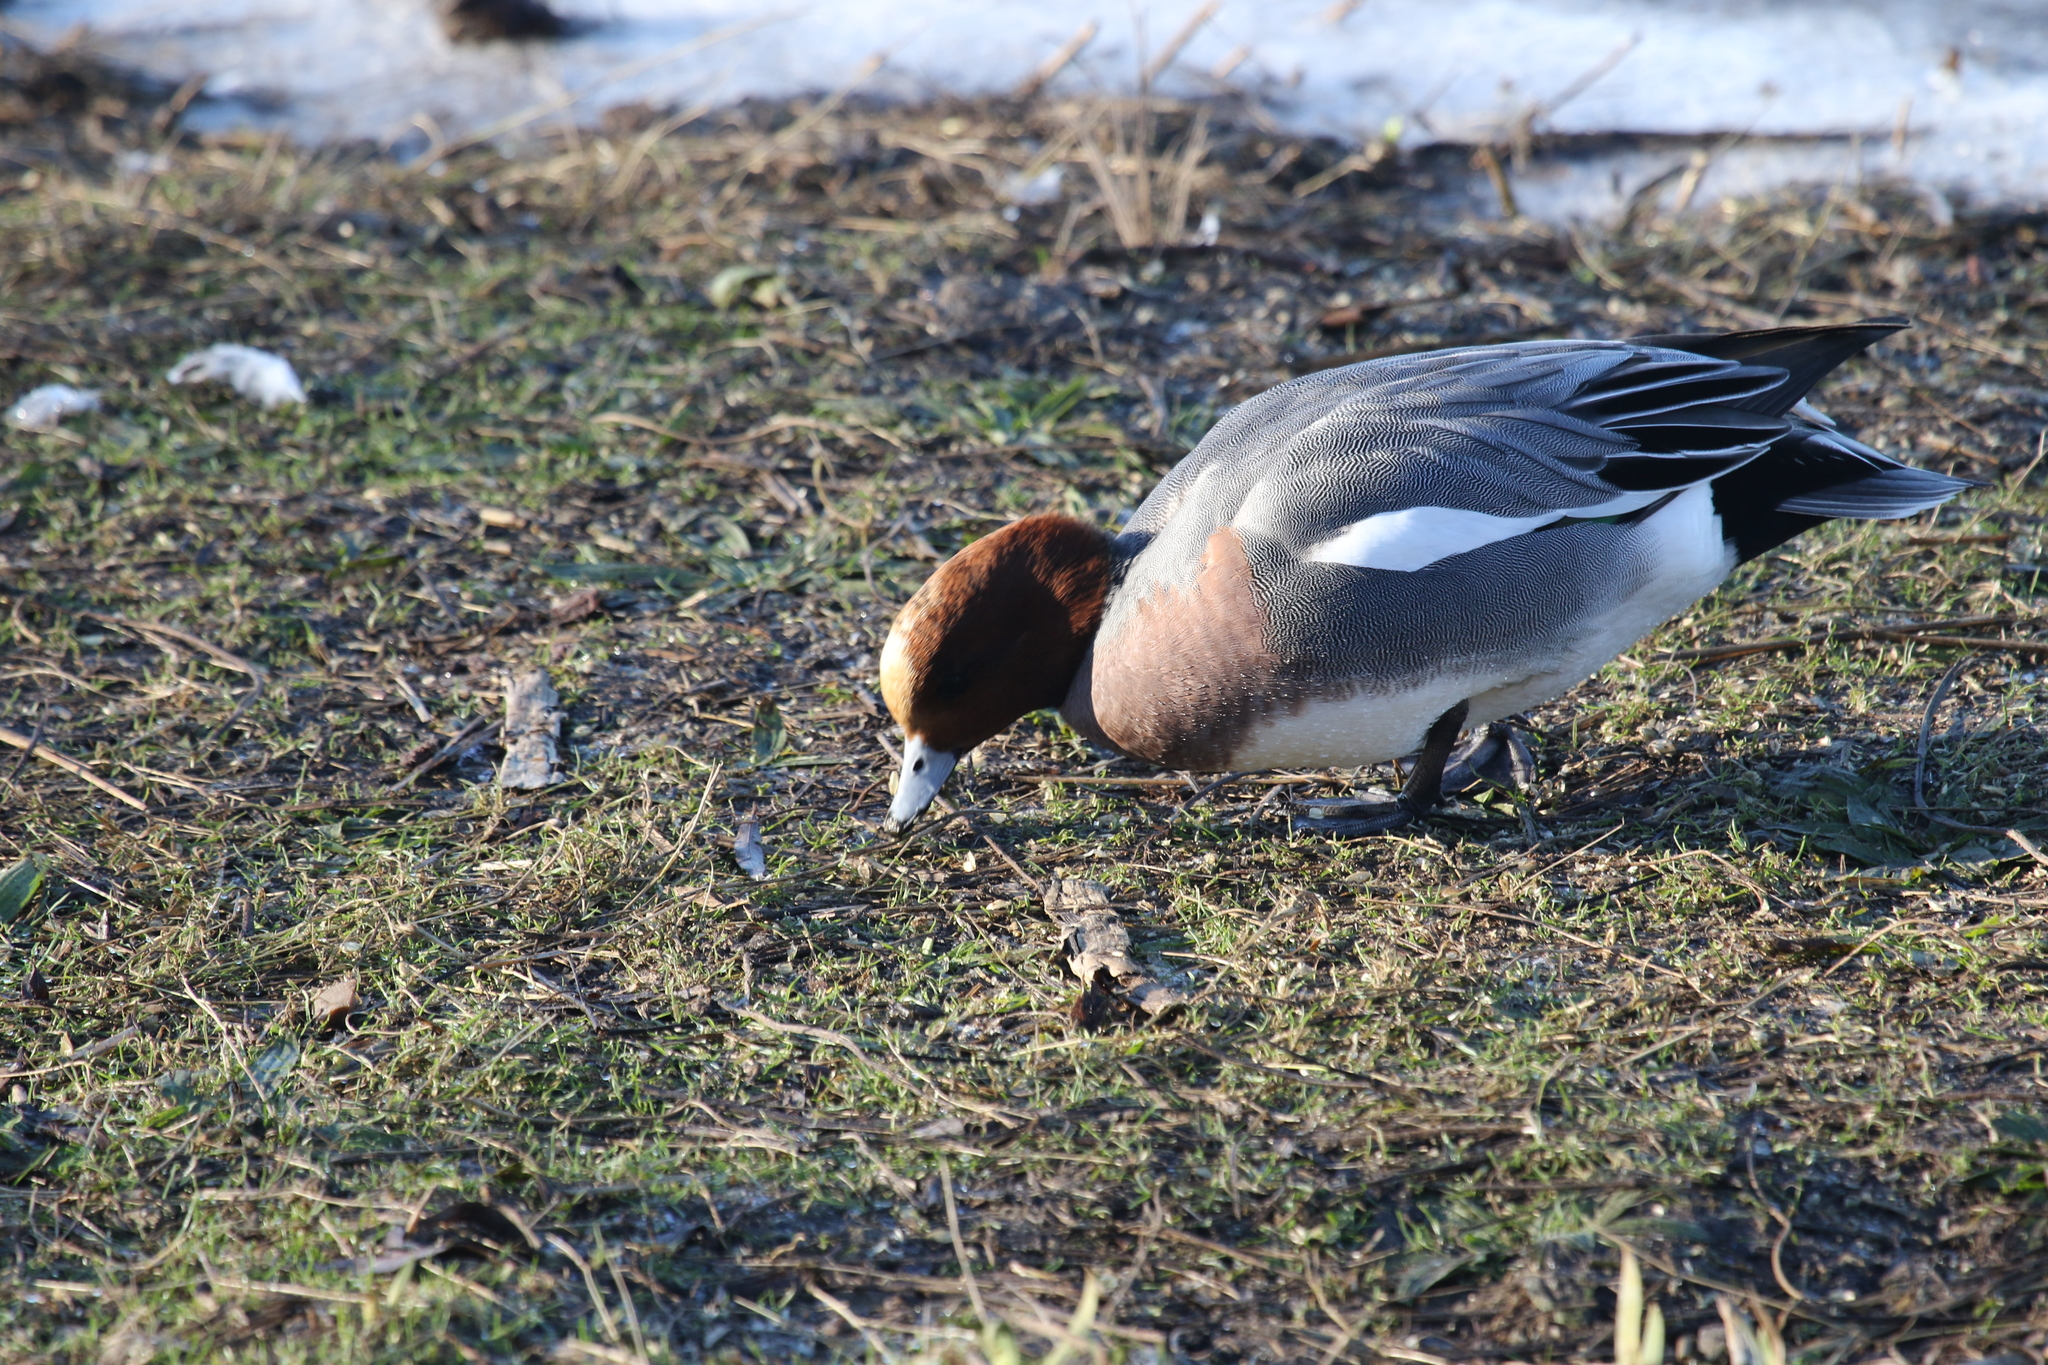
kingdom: Animalia
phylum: Chordata
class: Aves
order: Anseriformes
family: Anatidae
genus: Mareca
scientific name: Mareca penelope
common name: Eurasian wigeon
